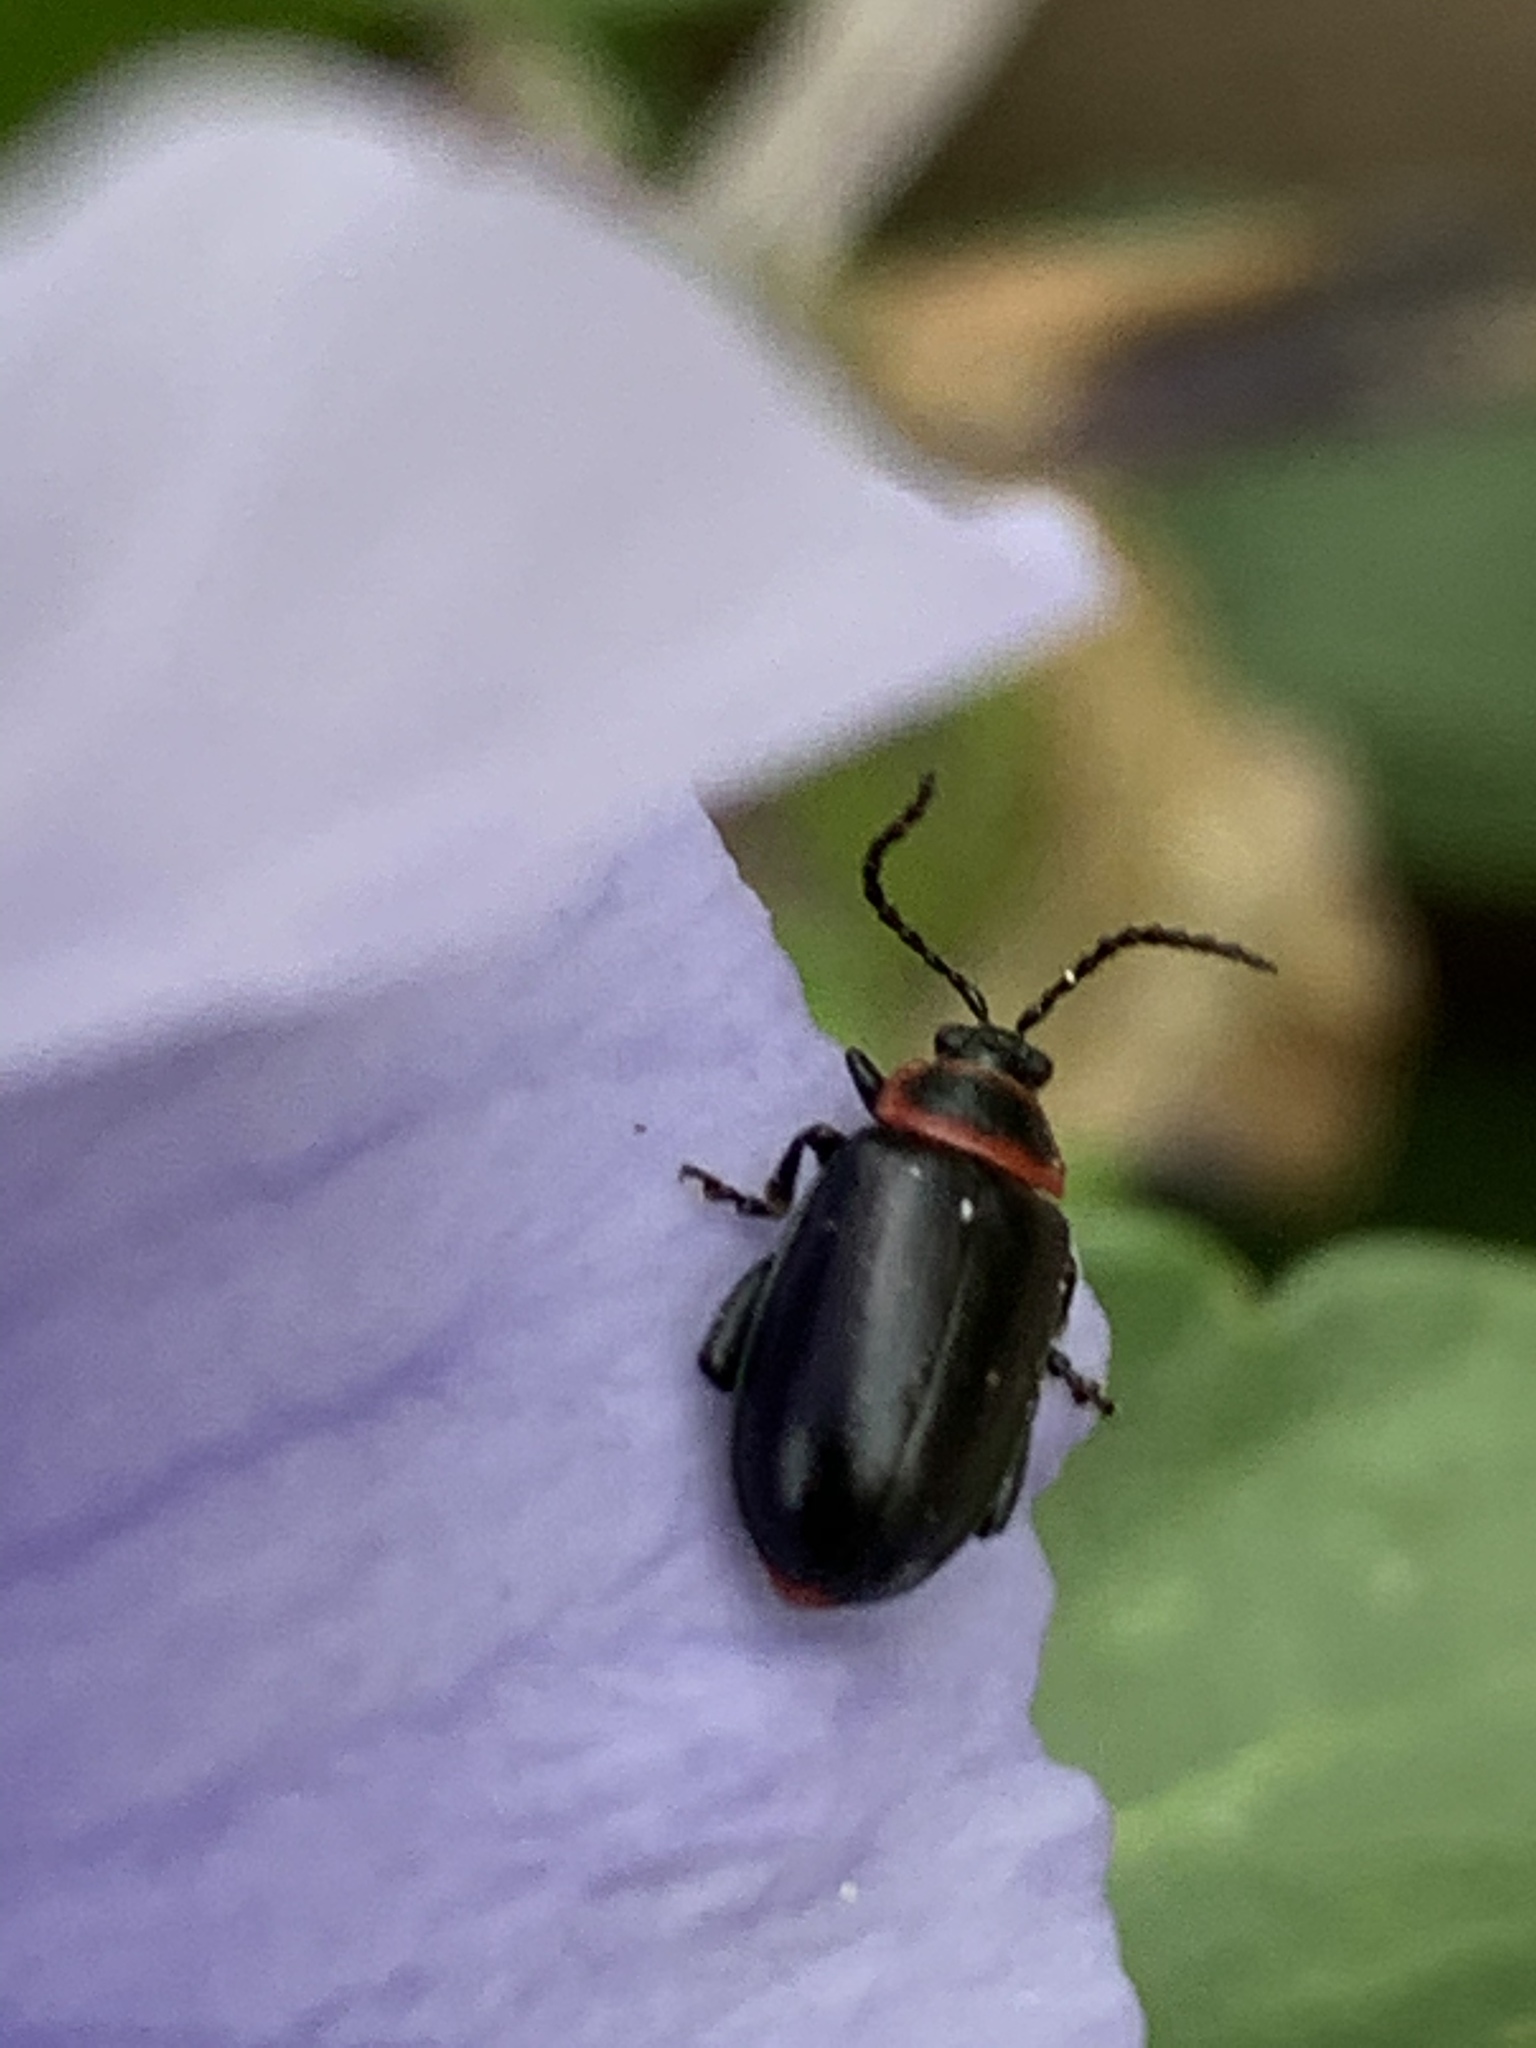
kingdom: Animalia
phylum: Arthropoda
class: Insecta
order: Coleoptera
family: Chrysomelidae
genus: Kuschelina
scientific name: Kuschelina vians
